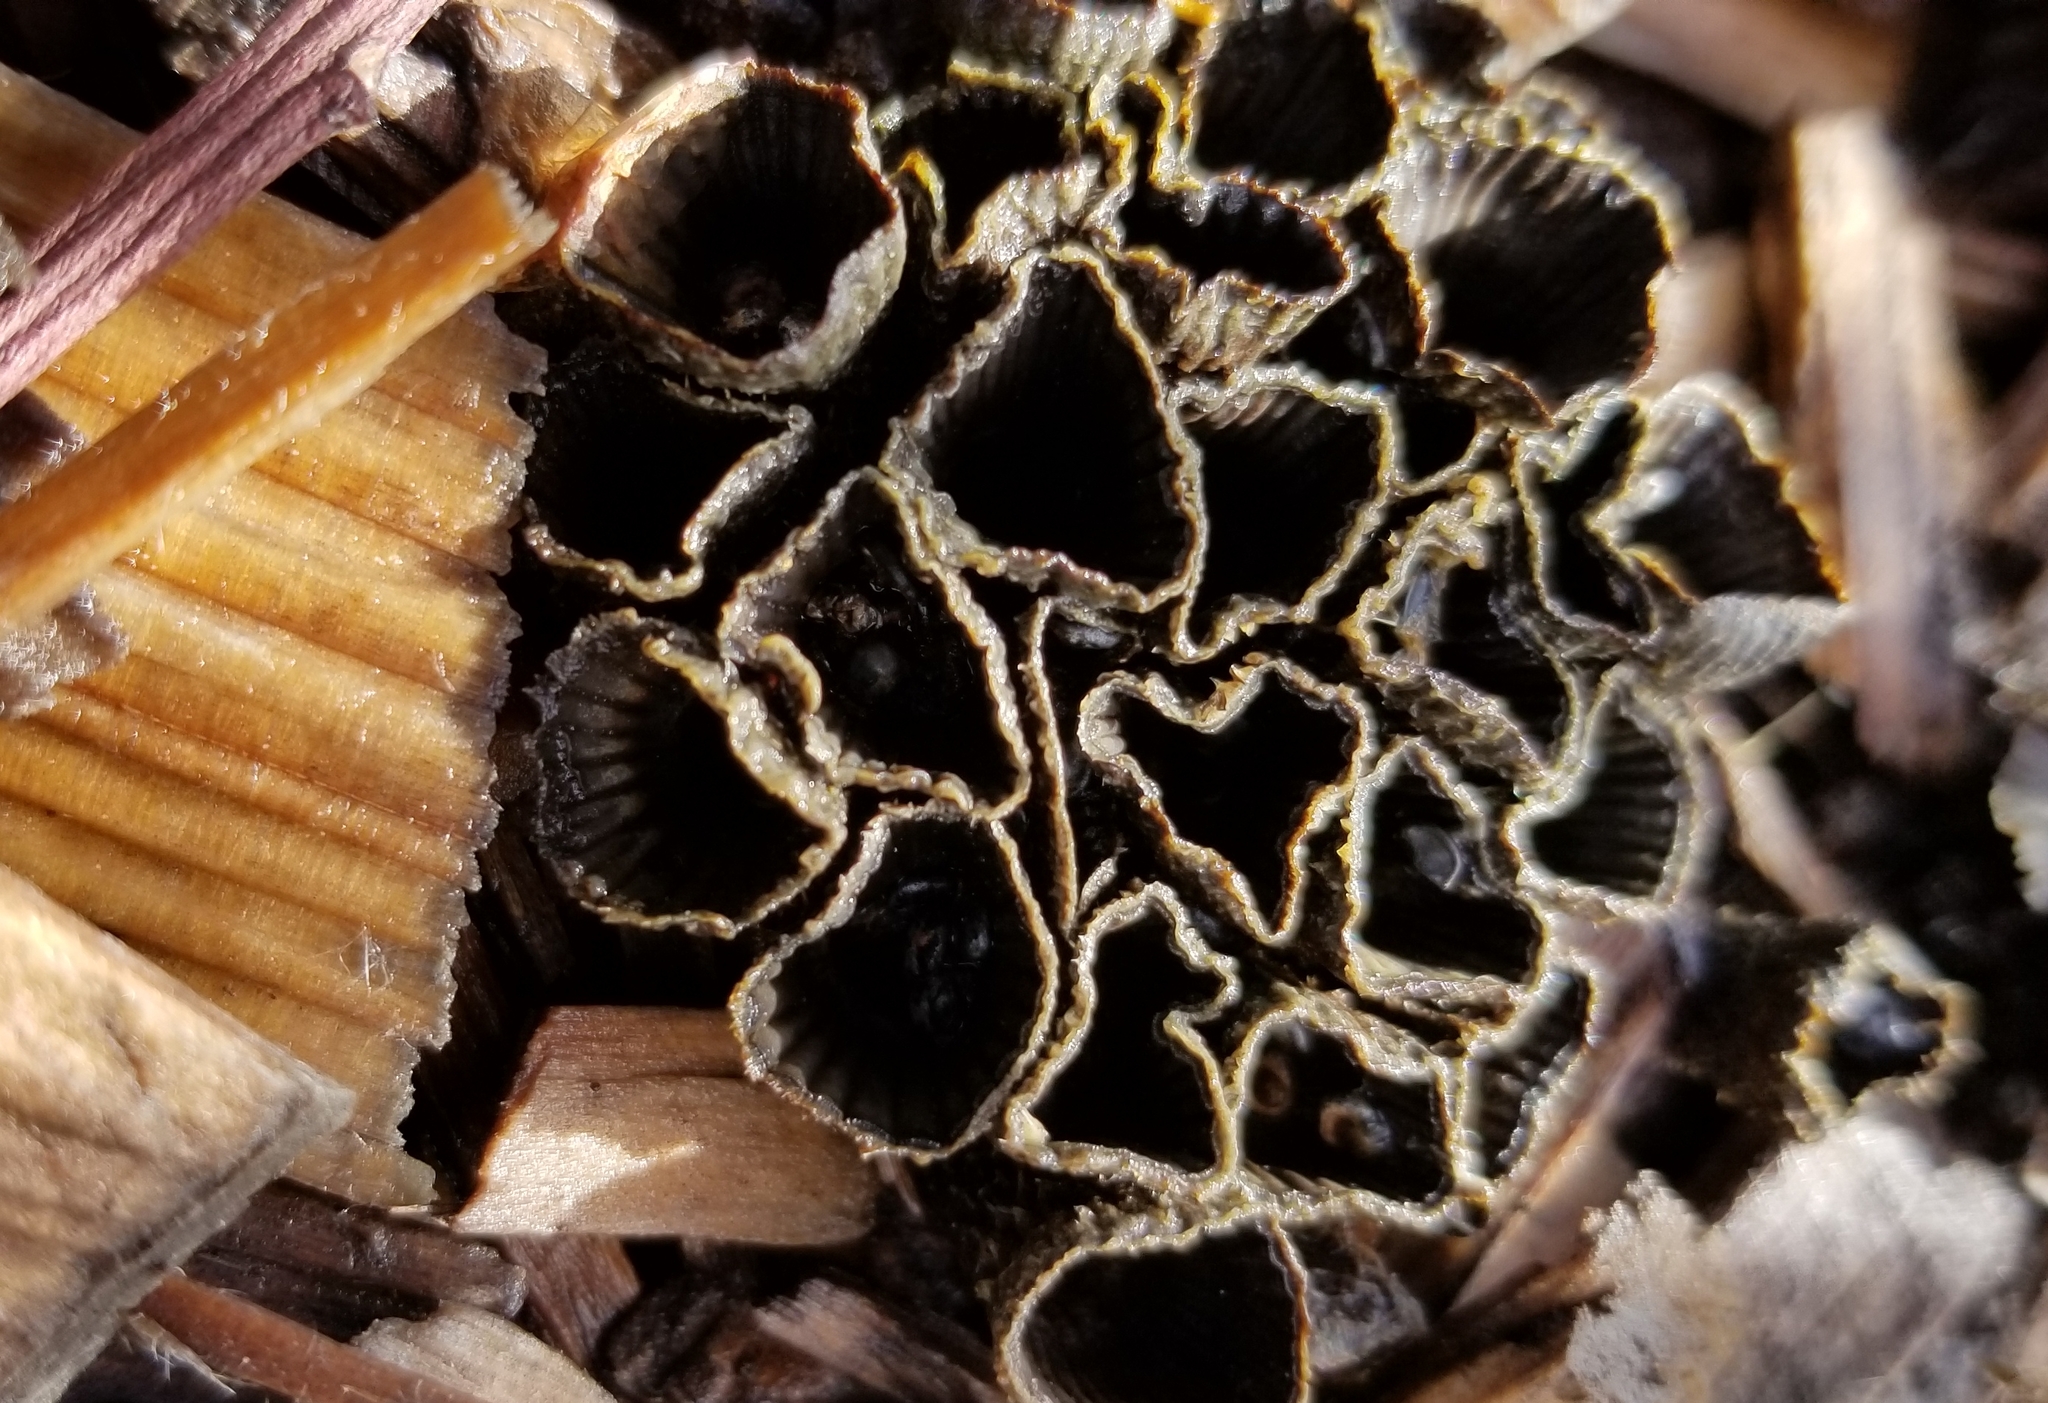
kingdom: Fungi
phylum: Basidiomycota
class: Agaricomycetes
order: Agaricales
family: Agaricaceae
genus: Cyathus
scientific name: Cyathus striatus
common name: Fluted bird's nest
